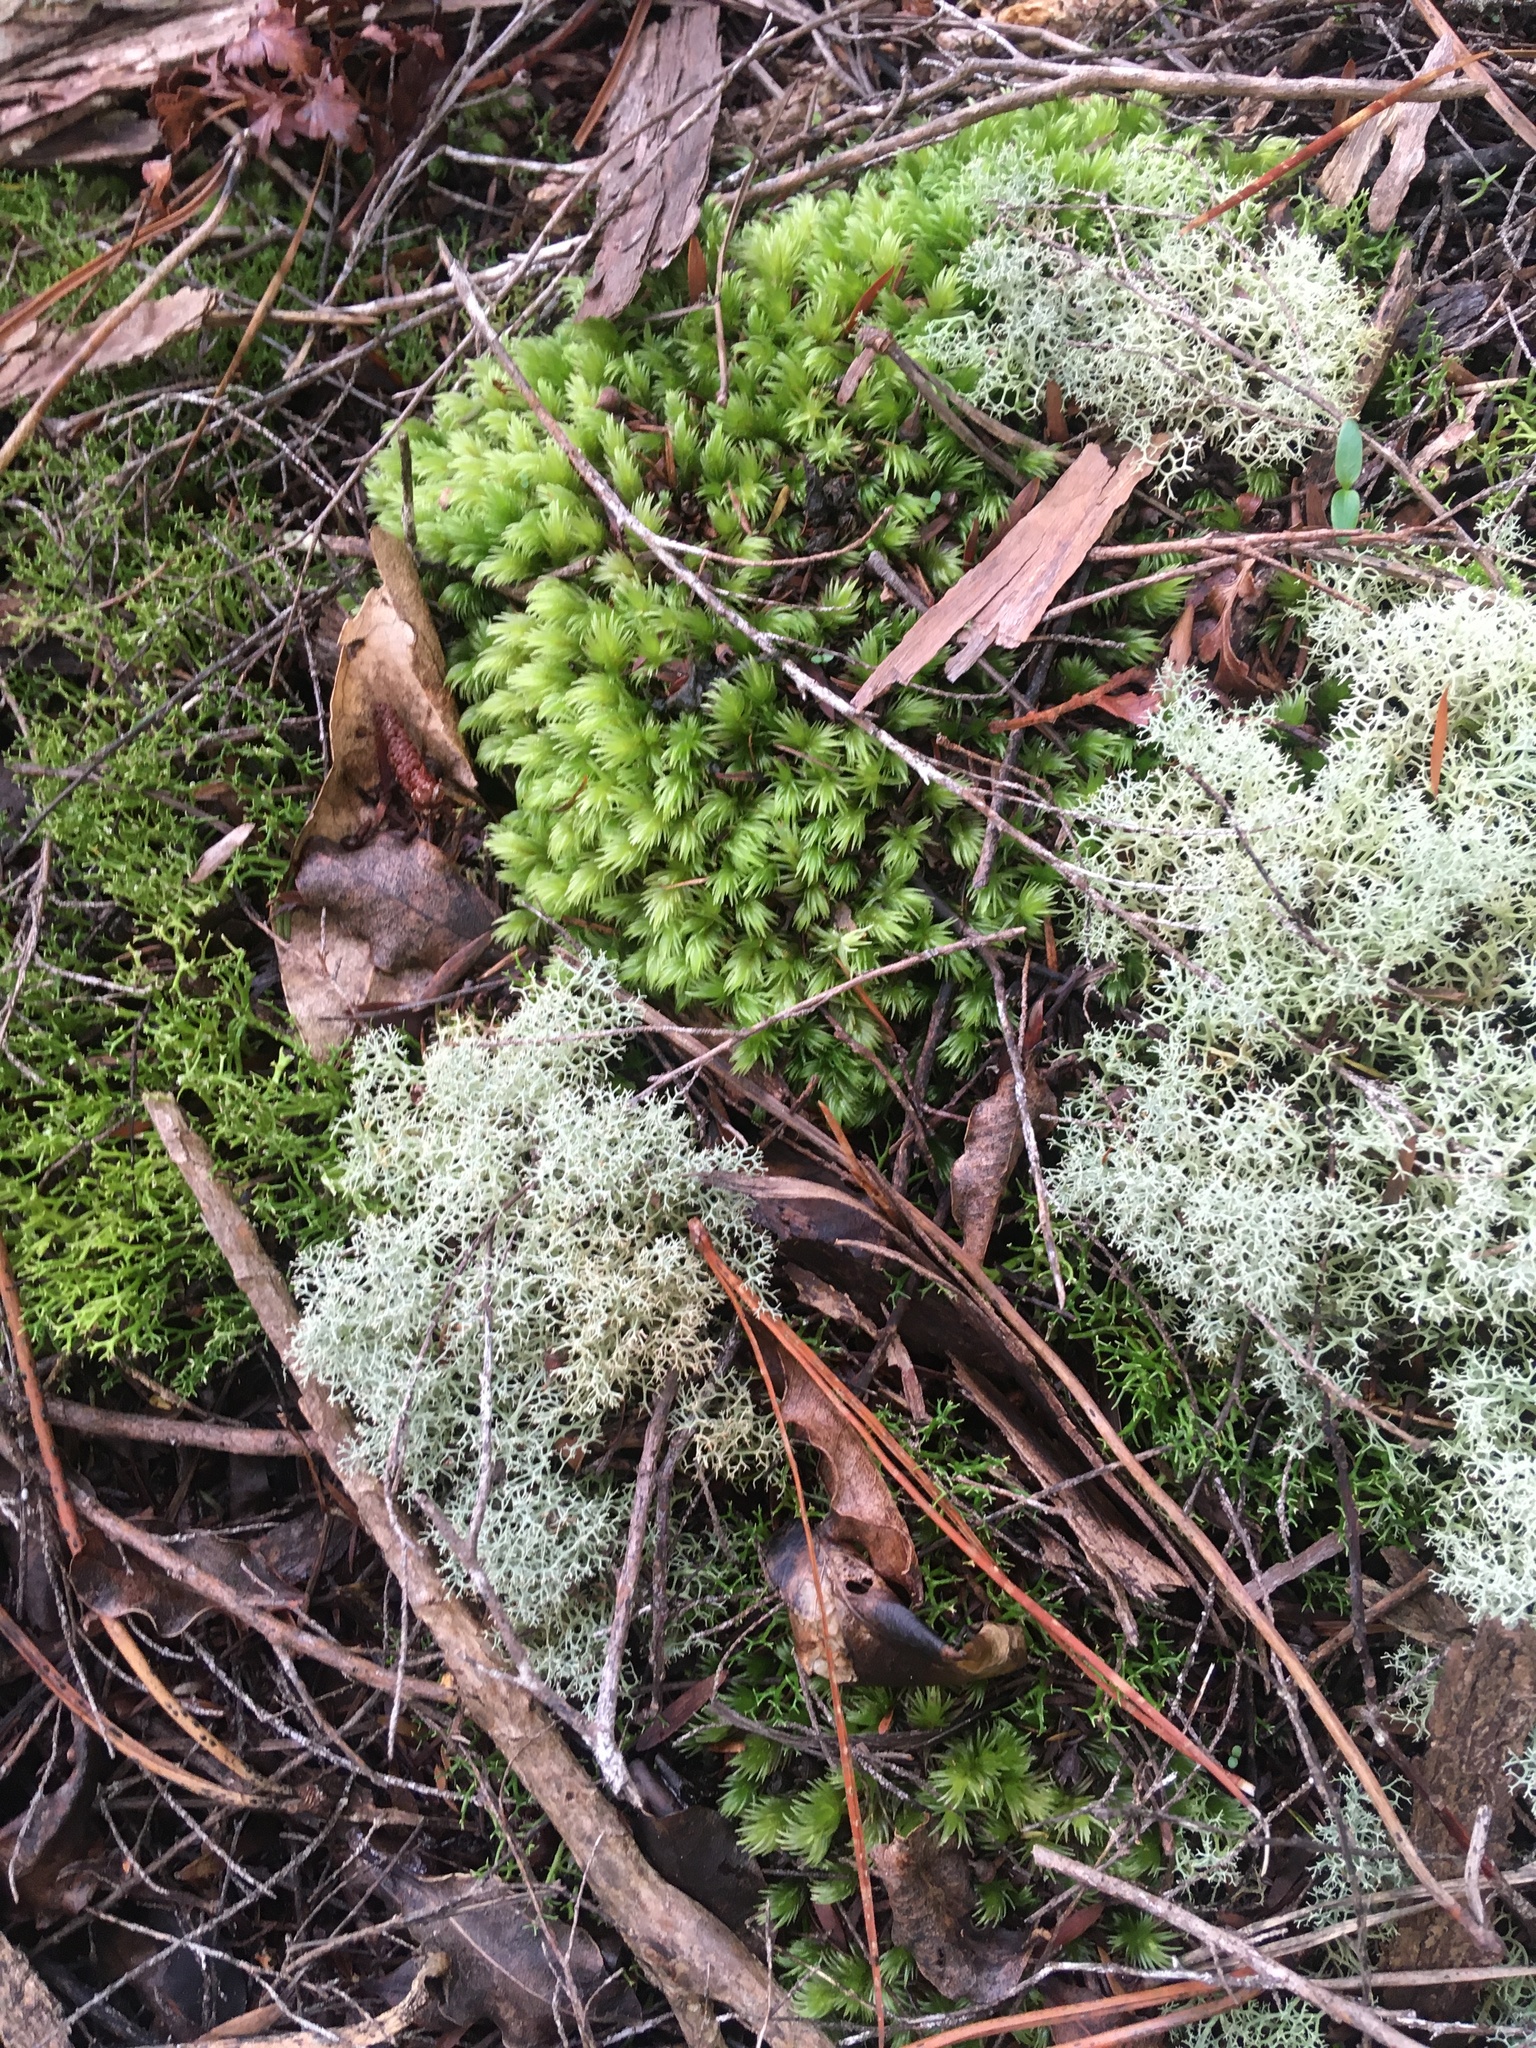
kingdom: Plantae
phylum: Bryophyta
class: Bryopsida
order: Dicranales
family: Leucobryaceae
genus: Leucobryum
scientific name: Leucobryum javense
